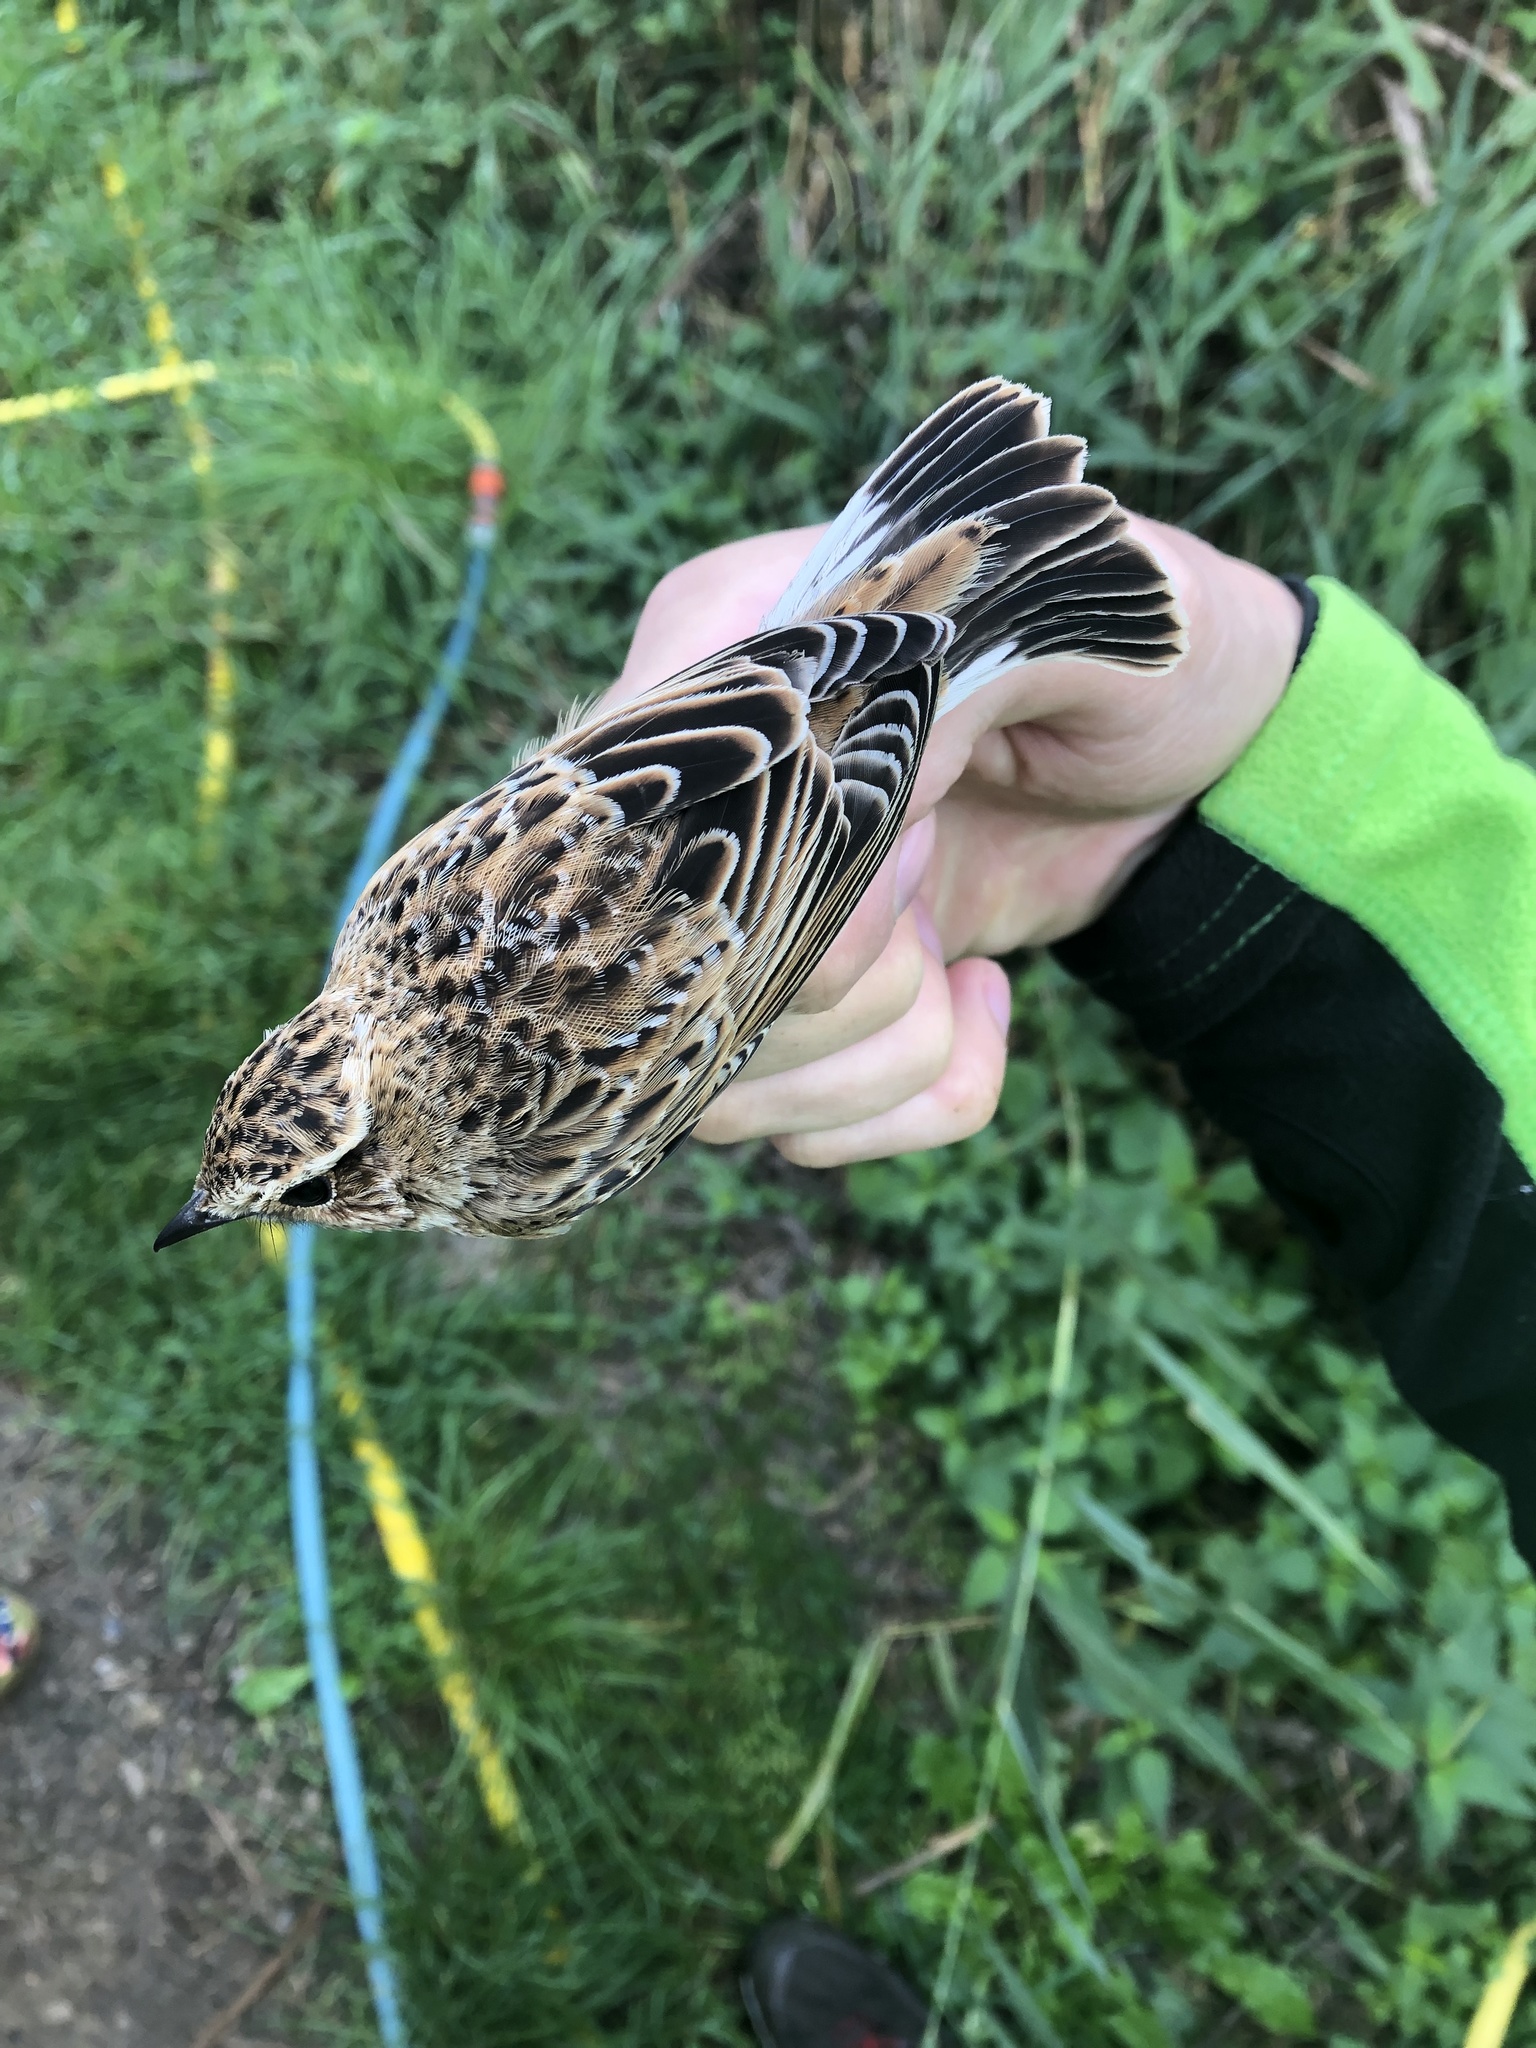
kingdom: Animalia
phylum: Chordata
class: Aves
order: Passeriformes
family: Muscicapidae
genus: Saxicola
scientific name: Saxicola rubetra
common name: Whinchat
